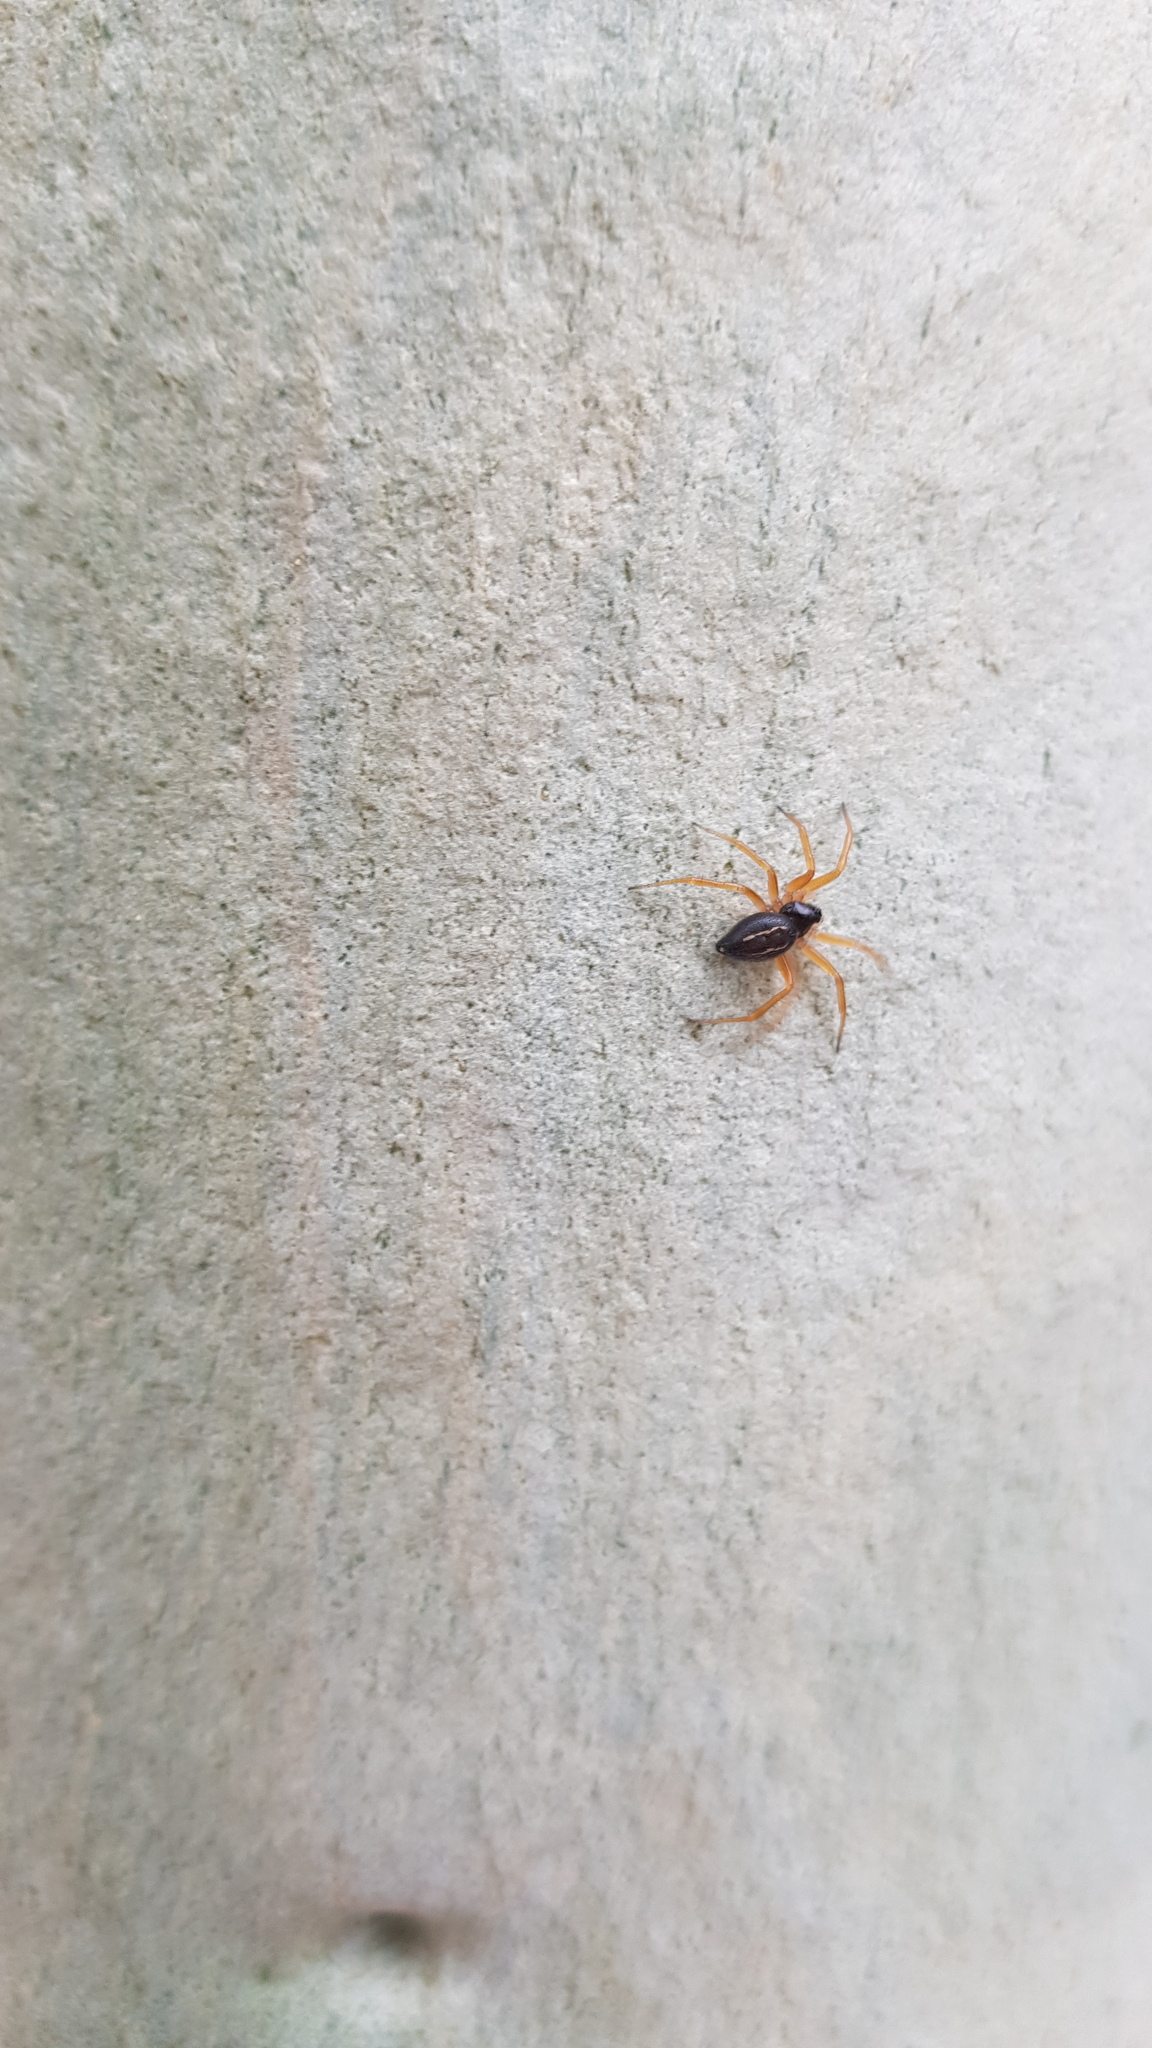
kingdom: Animalia
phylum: Arthropoda
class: Arachnida
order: Araneae
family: Theridiidae
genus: Euryopis
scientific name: Euryopis umbilicata
